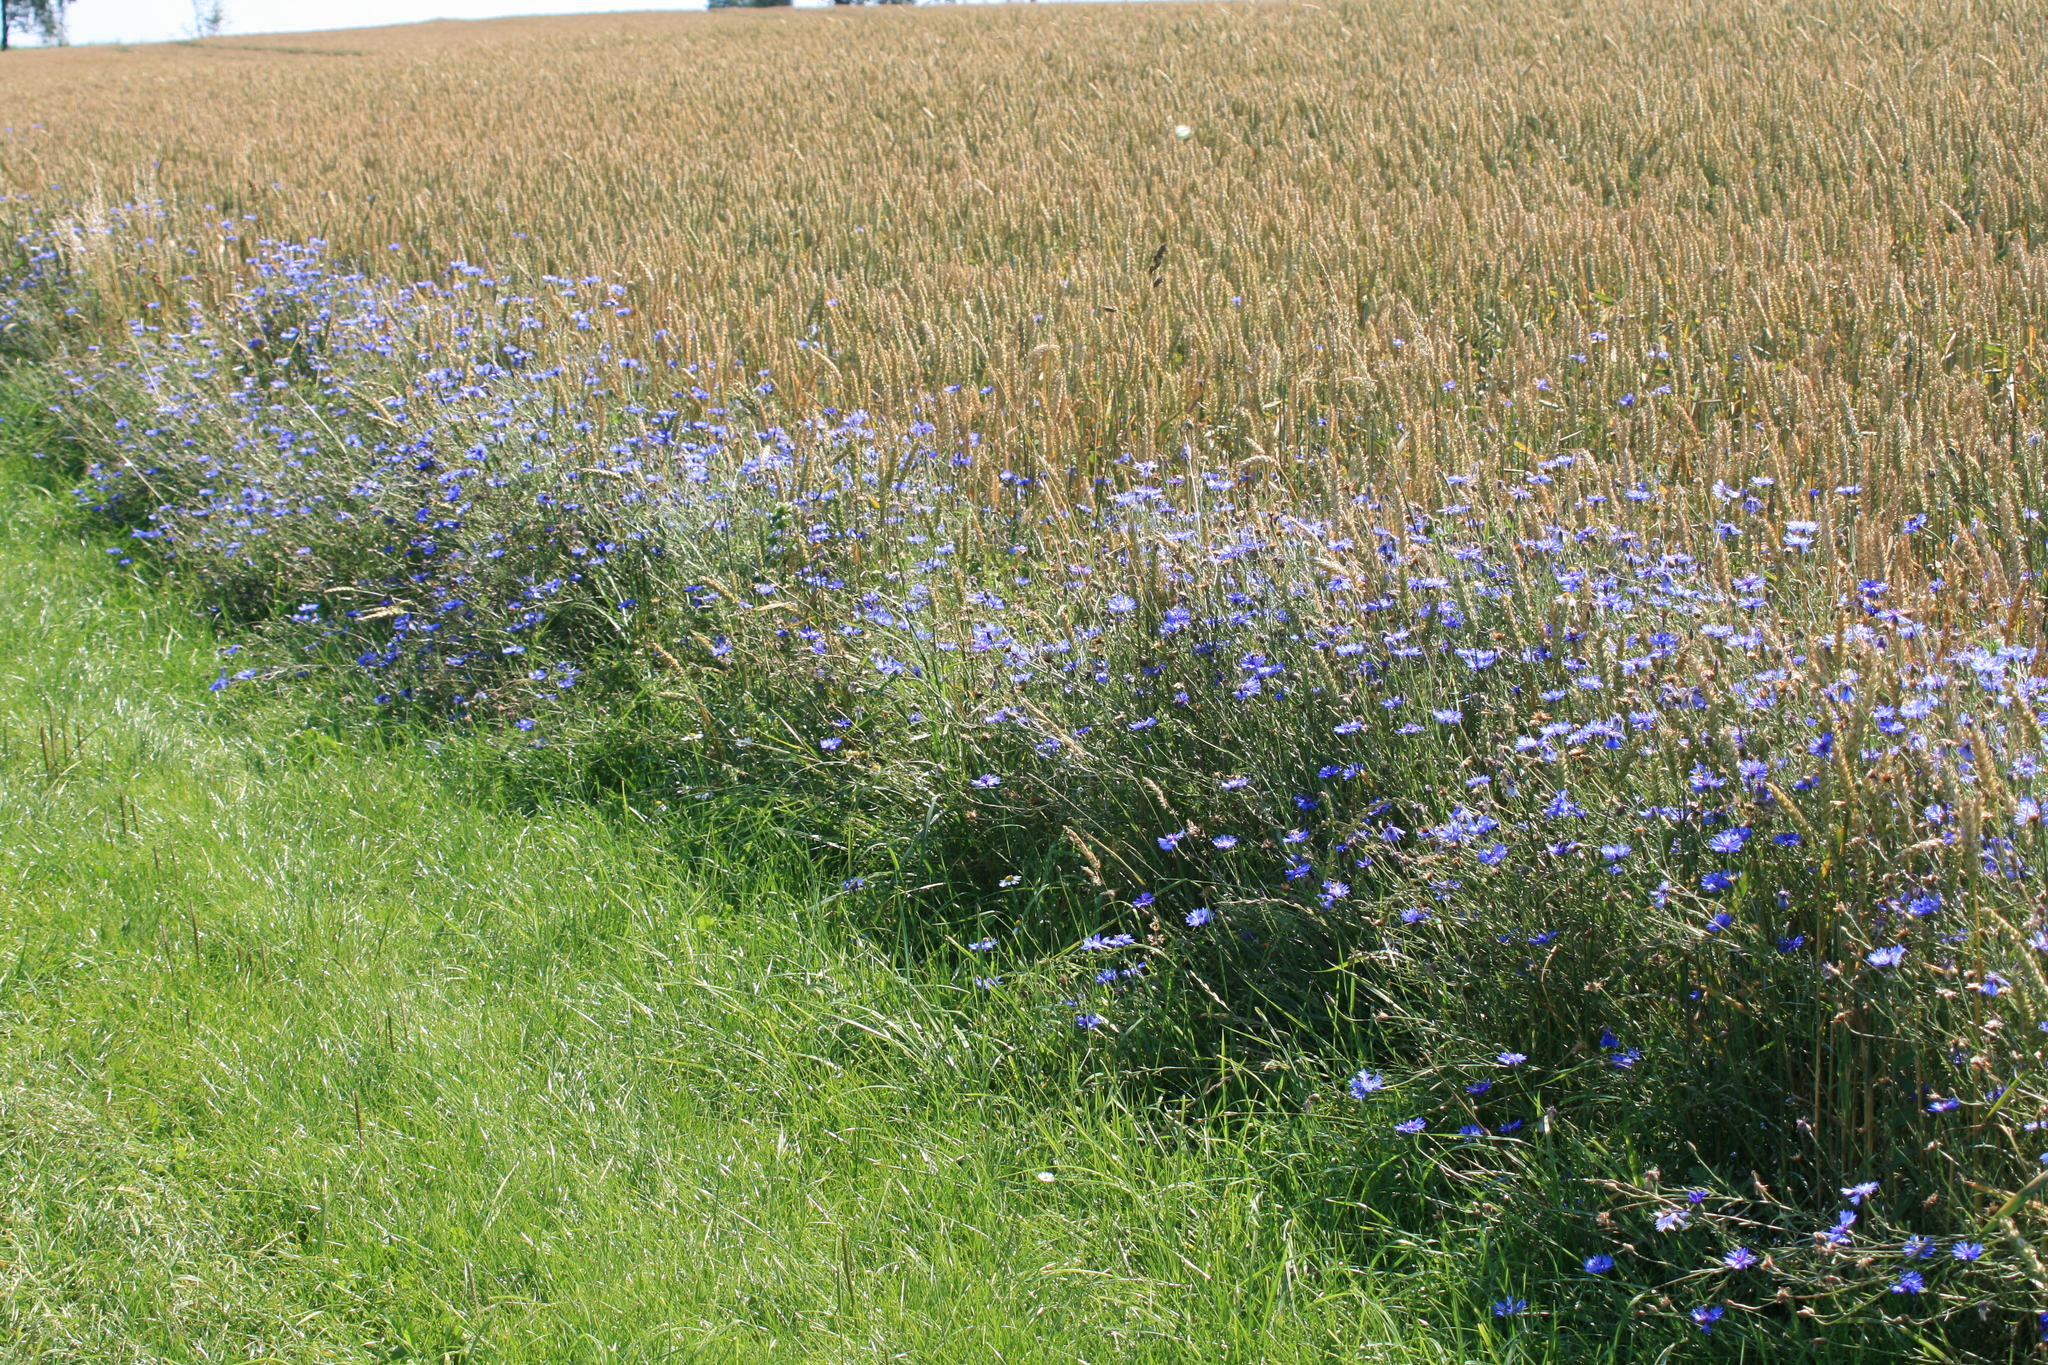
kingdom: Plantae
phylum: Tracheophyta
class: Magnoliopsida
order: Asterales
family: Asteraceae
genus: Centaurea
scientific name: Centaurea cyanus
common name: Cornflower
